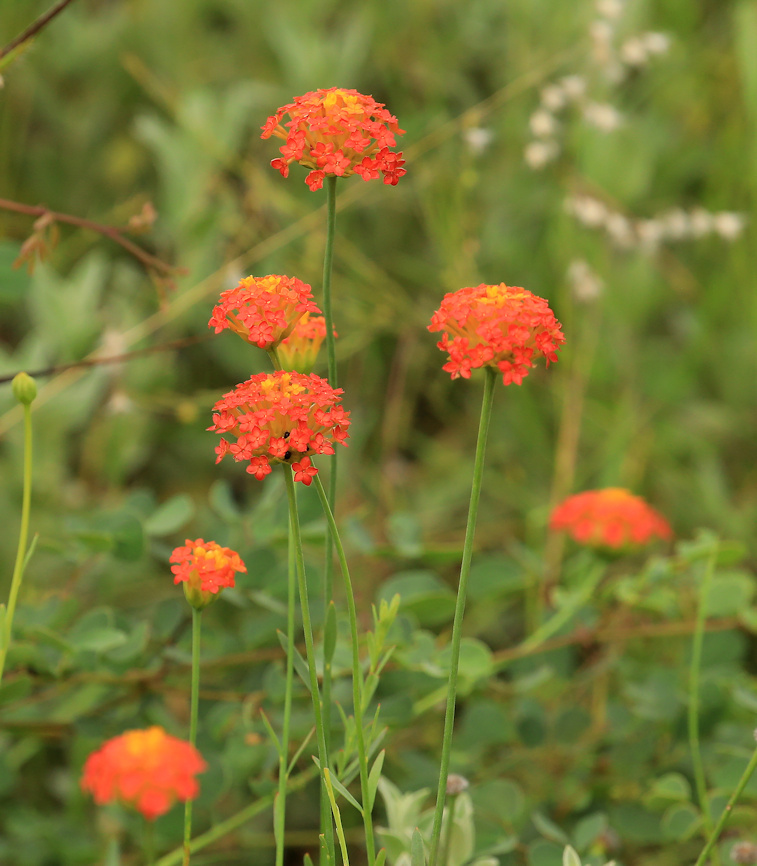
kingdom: Plantae
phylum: Tracheophyta
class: Magnoliopsida
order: Malvales
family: Thymelaeaceae
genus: Gnidia
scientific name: Gnidia rubescens
